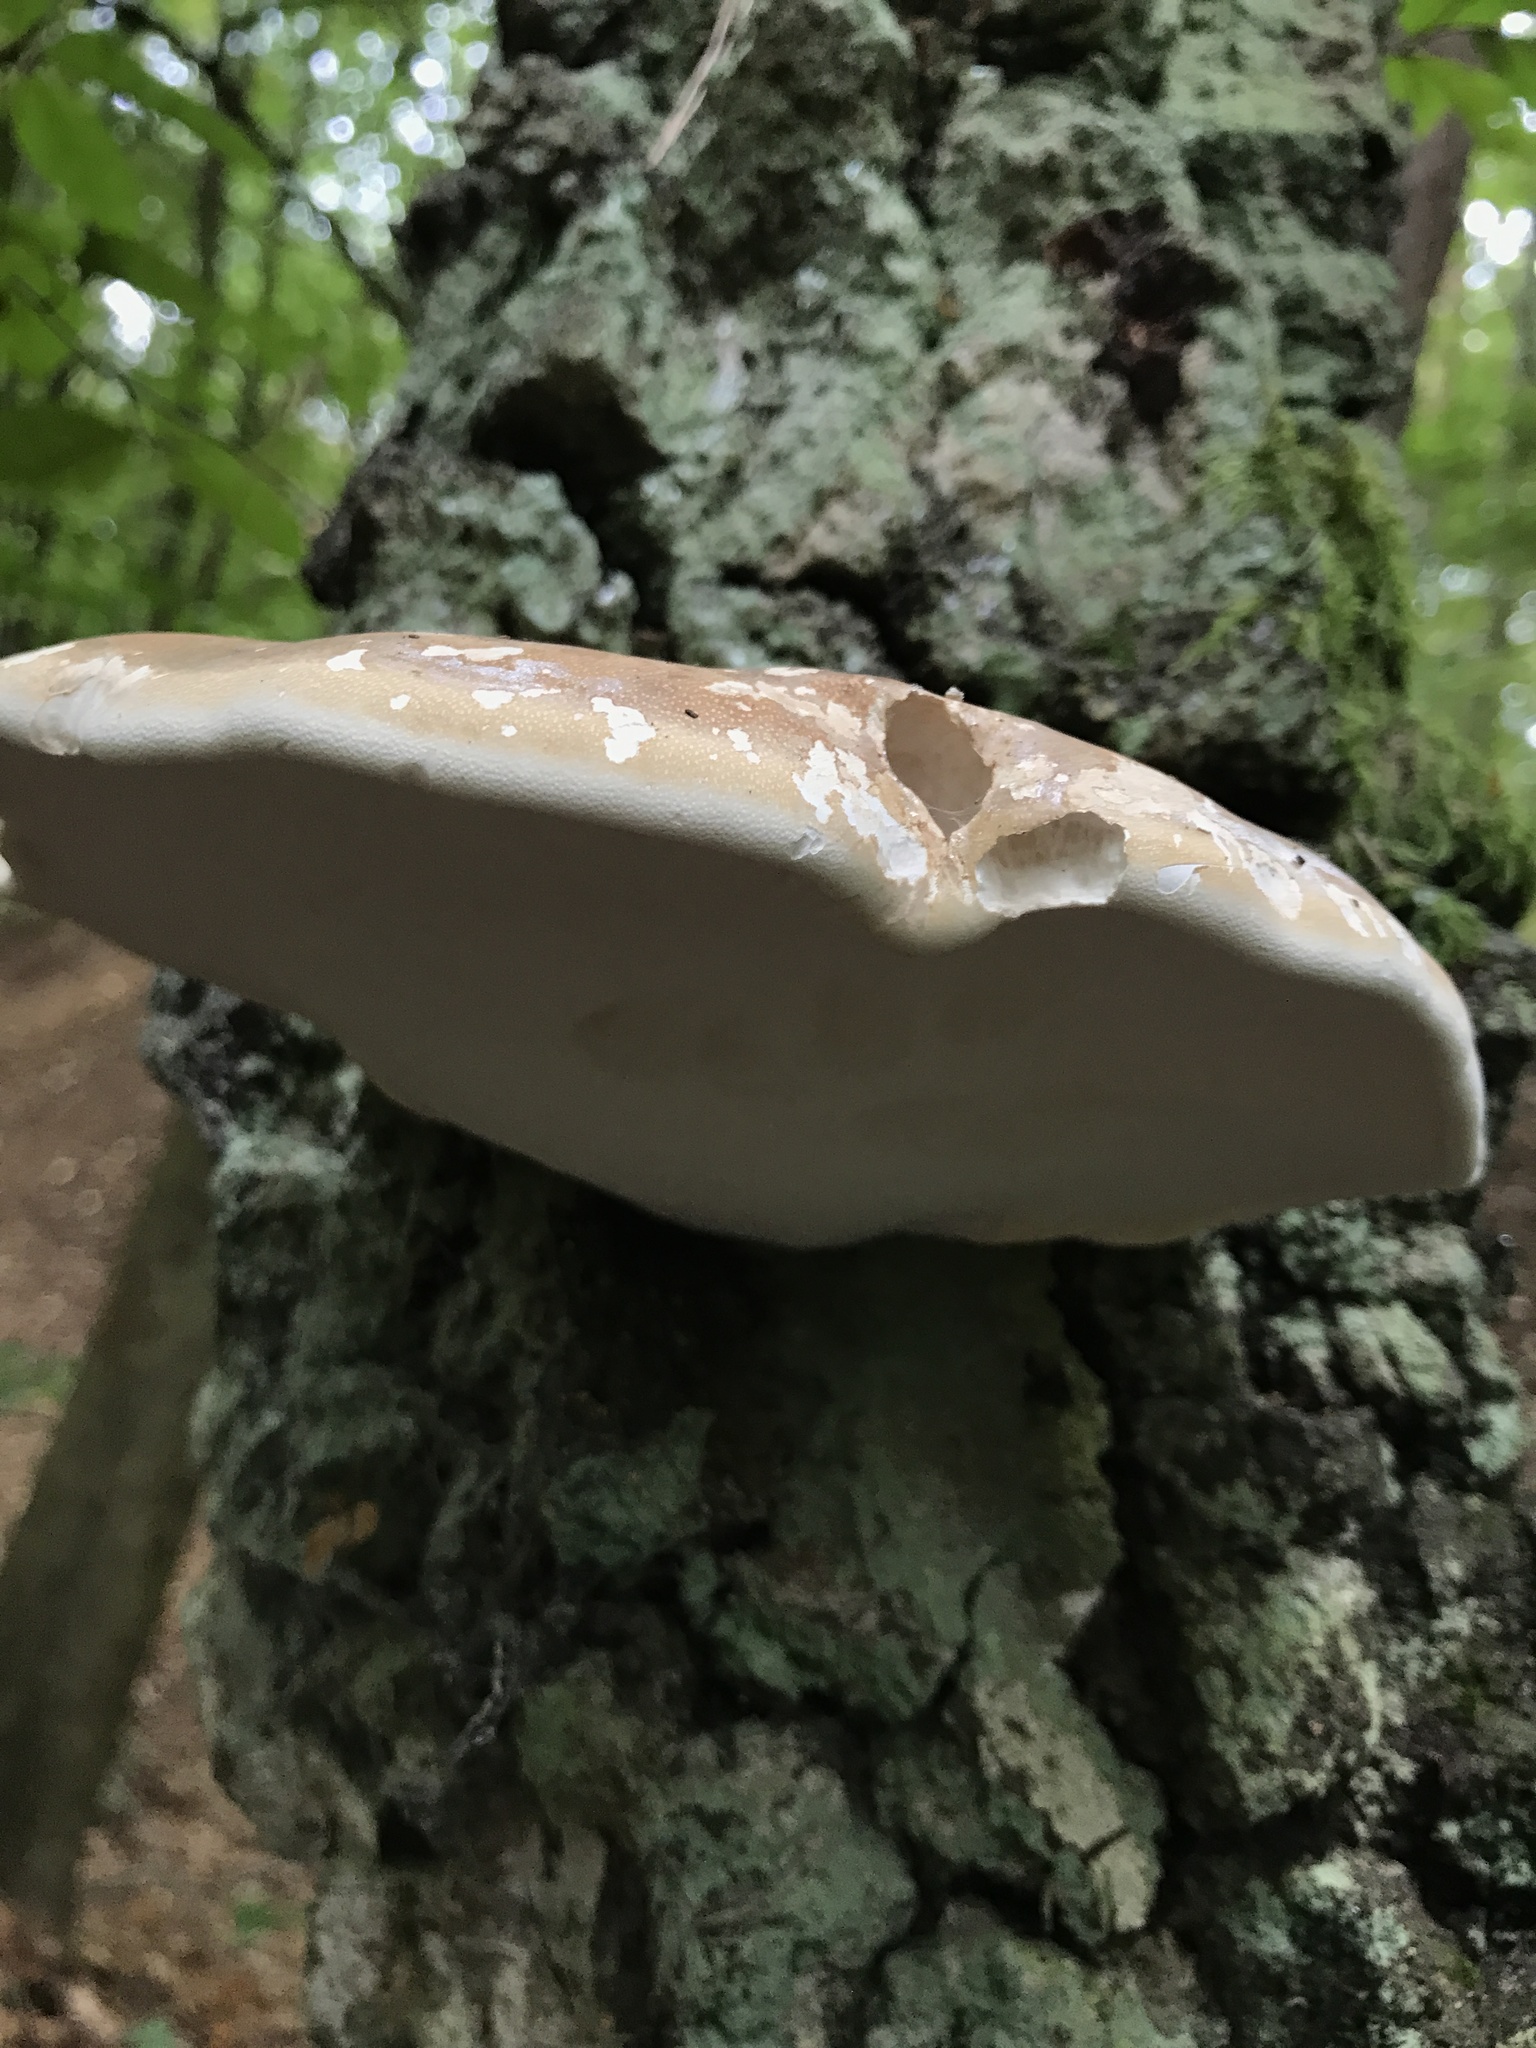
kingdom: Fungi
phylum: Basidiomycota
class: Agaricomycetes
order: Polyporales
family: Fomitopsidaceae
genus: Fomitopsis
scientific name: Fomitopsis betulina
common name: Birch polypore
